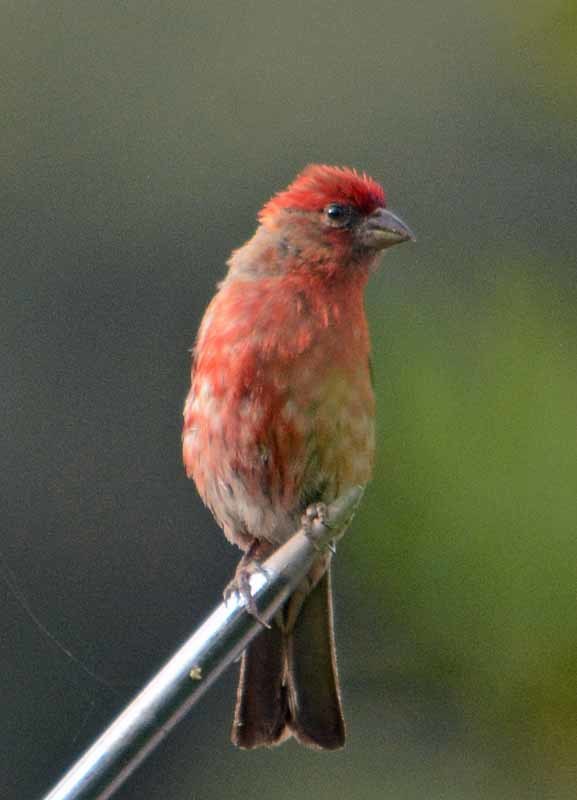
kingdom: Animalia
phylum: Chordata
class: Aves
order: Passeriformes
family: Fringillidae
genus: Haemorhous
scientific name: Haemorhous mexicanus
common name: House finch
